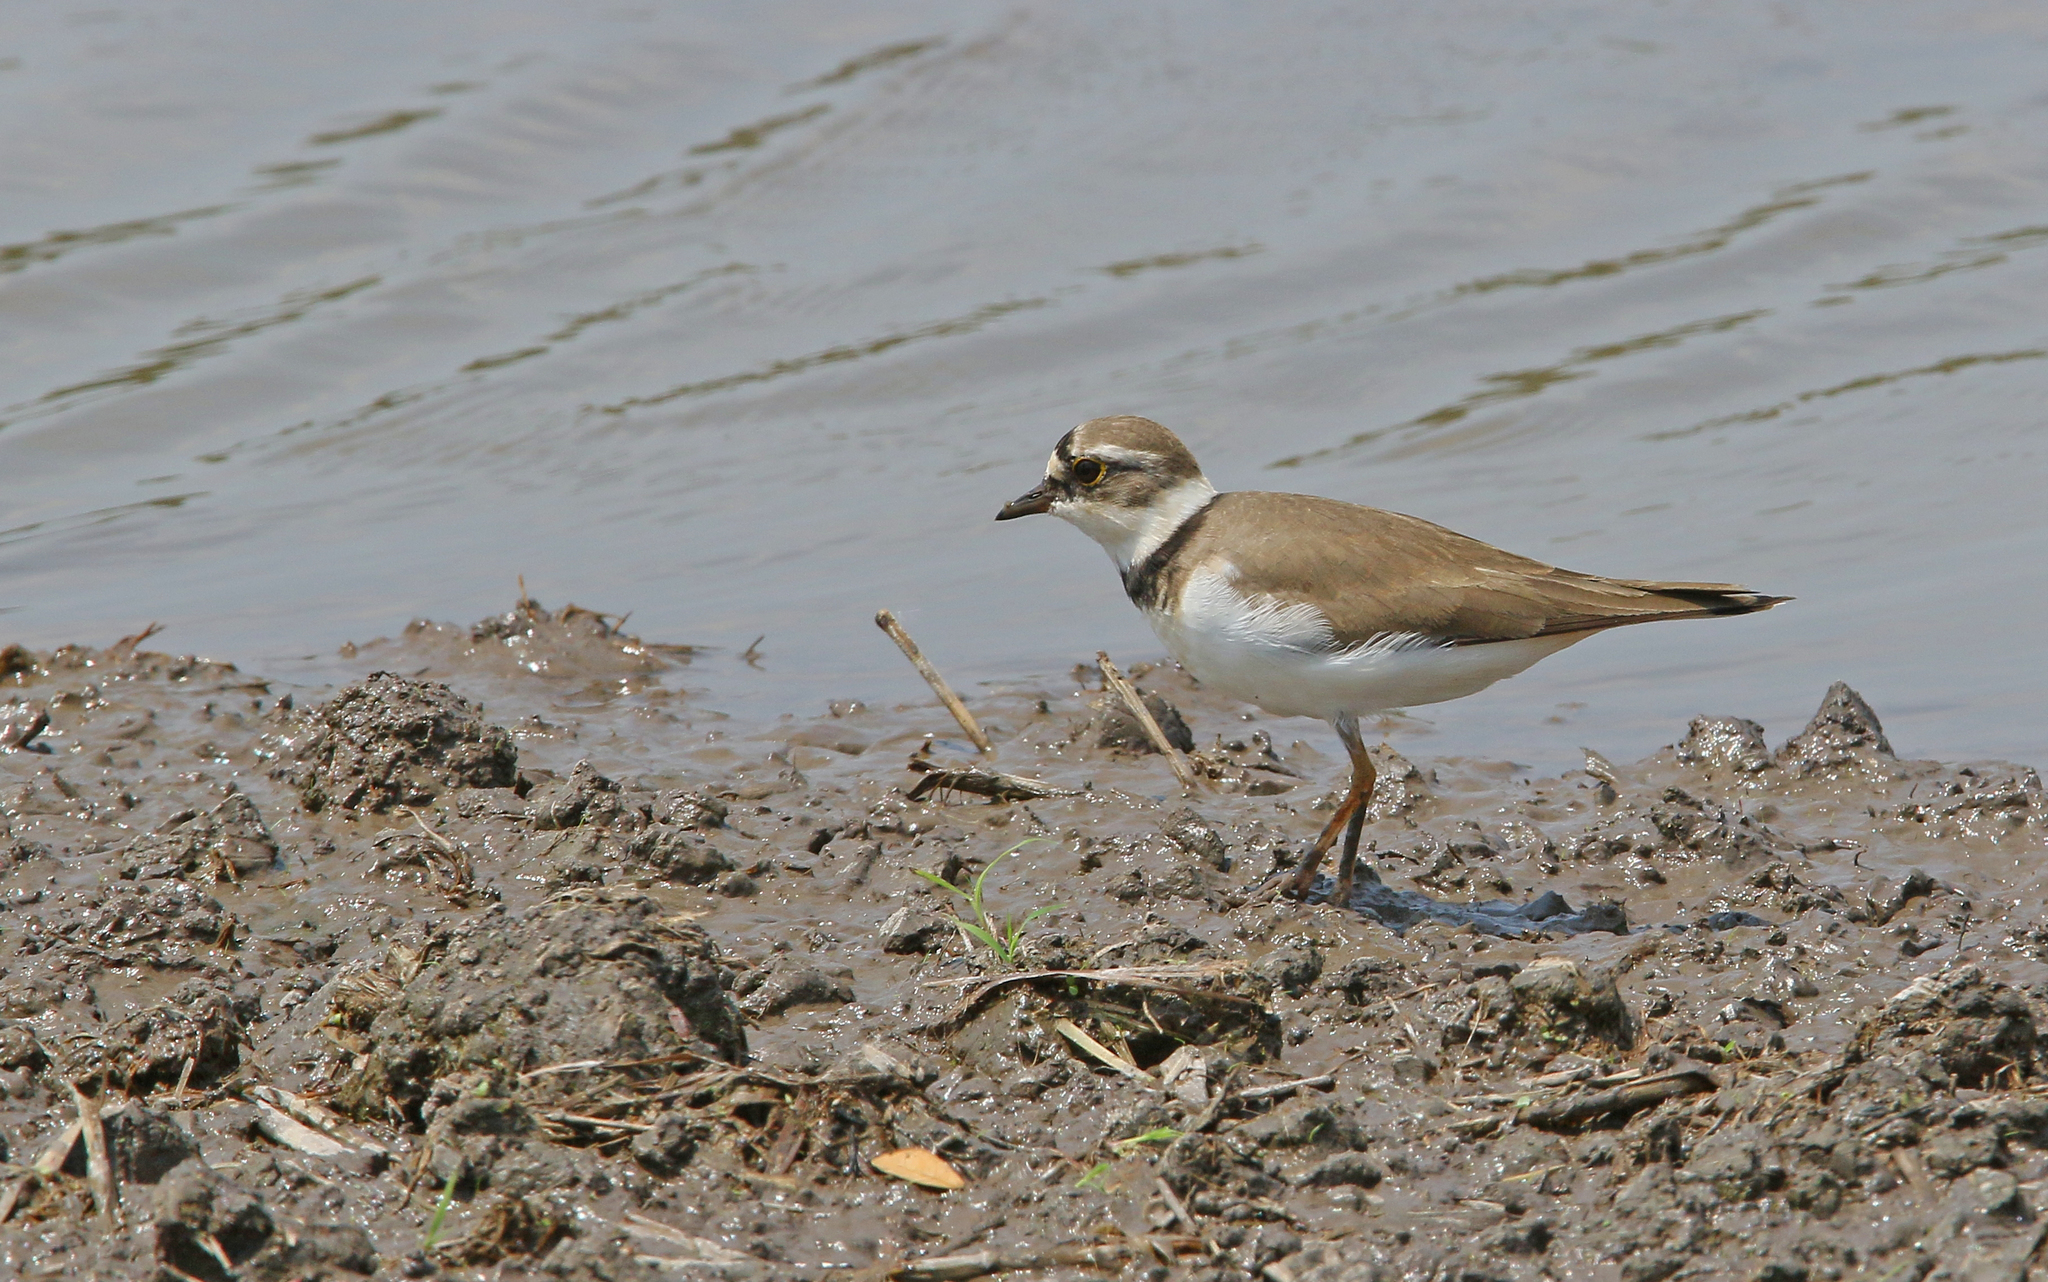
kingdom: Animalia
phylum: Chordata
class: Aves
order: Charadriiformes
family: Charadriidae
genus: Charadrius
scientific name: Charadrius dubius
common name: Little ringed plover
